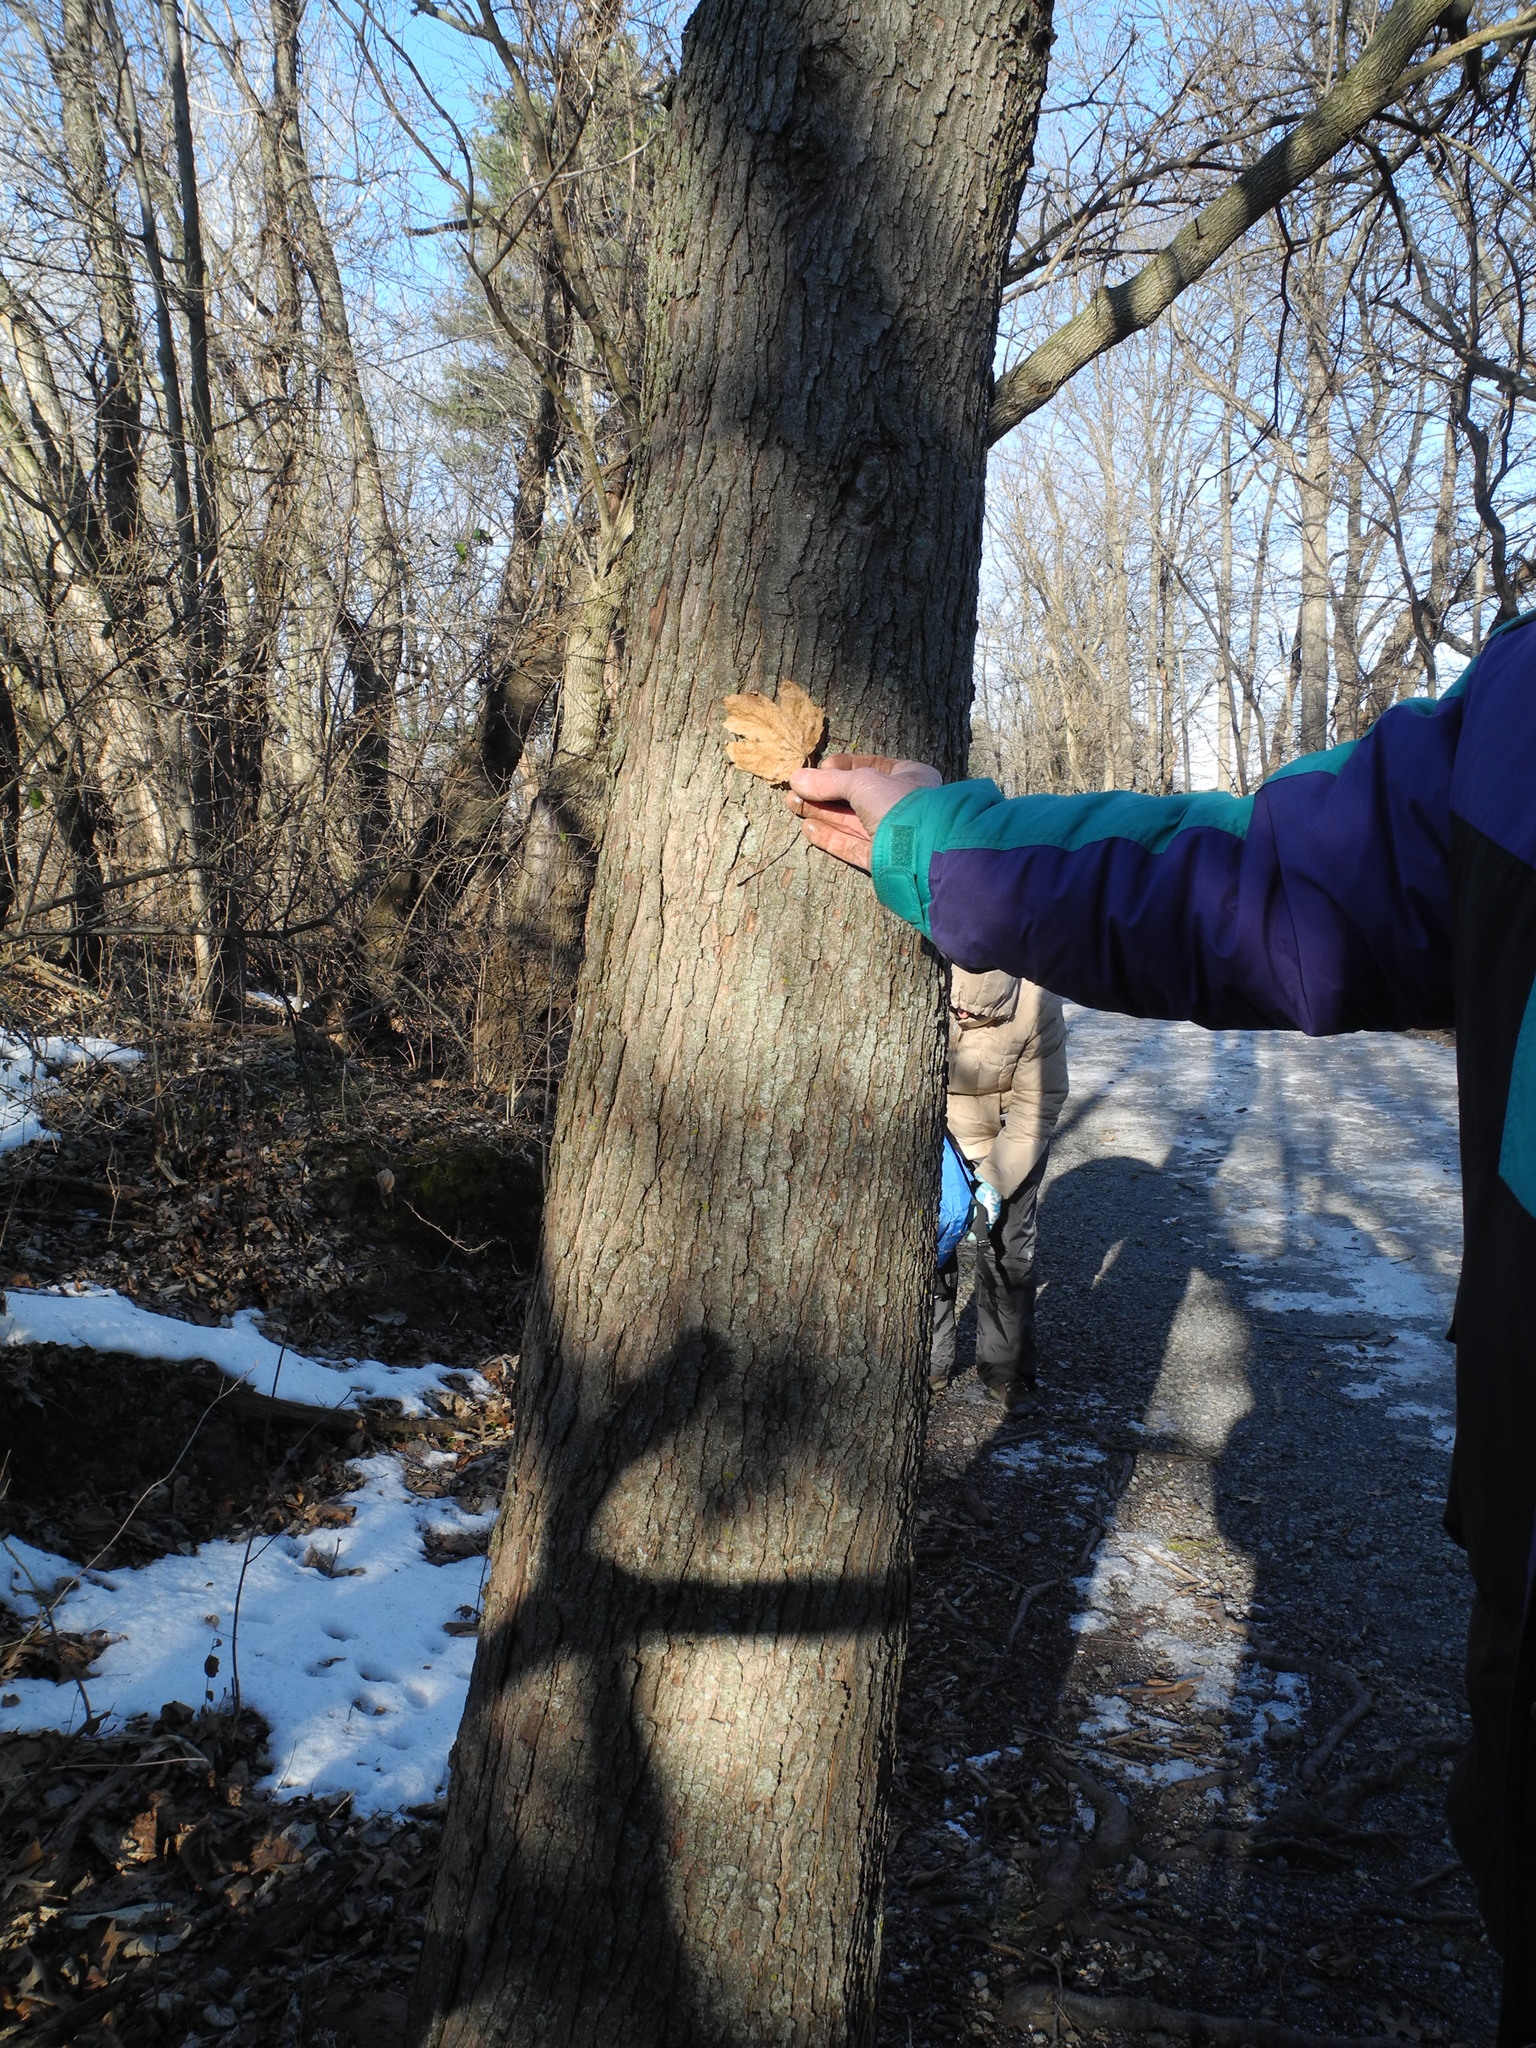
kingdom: Plantae
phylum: Tracheophyta
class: Magnoliopsida
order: Sapindales
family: Sapindaceae
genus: Acer
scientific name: Acer rubrum
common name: Red maple
